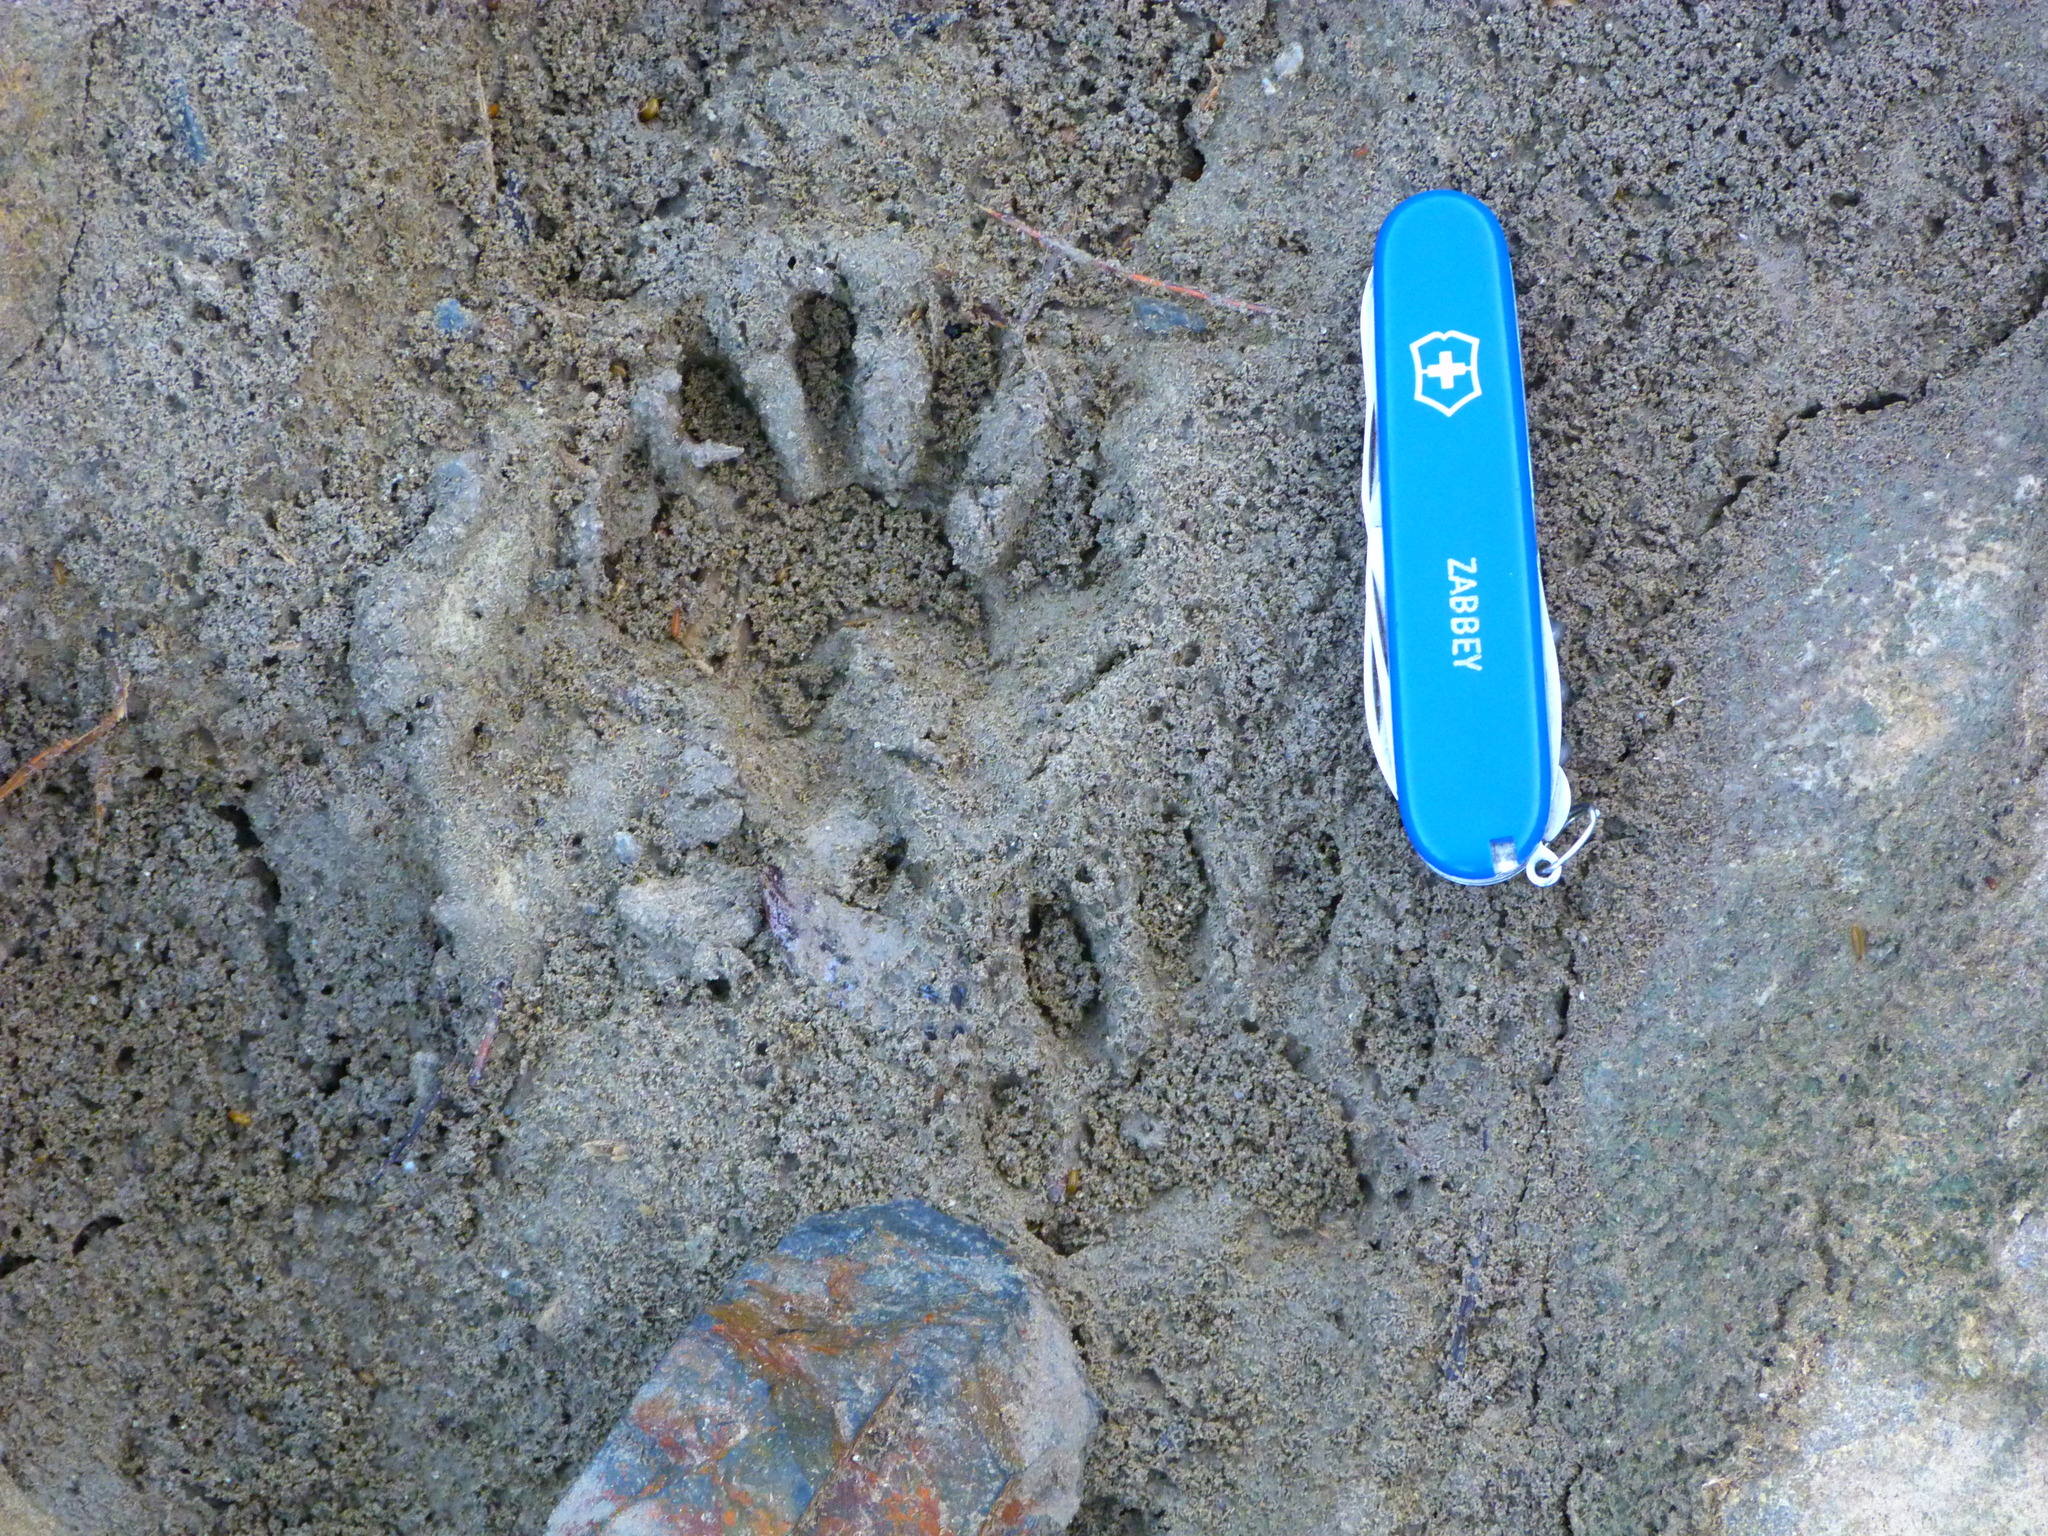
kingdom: Animalia
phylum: Chordata
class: Mammalia
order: Carnivora
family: Procyonidae
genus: Procyon
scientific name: Procyon lotor
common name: Raccoon
